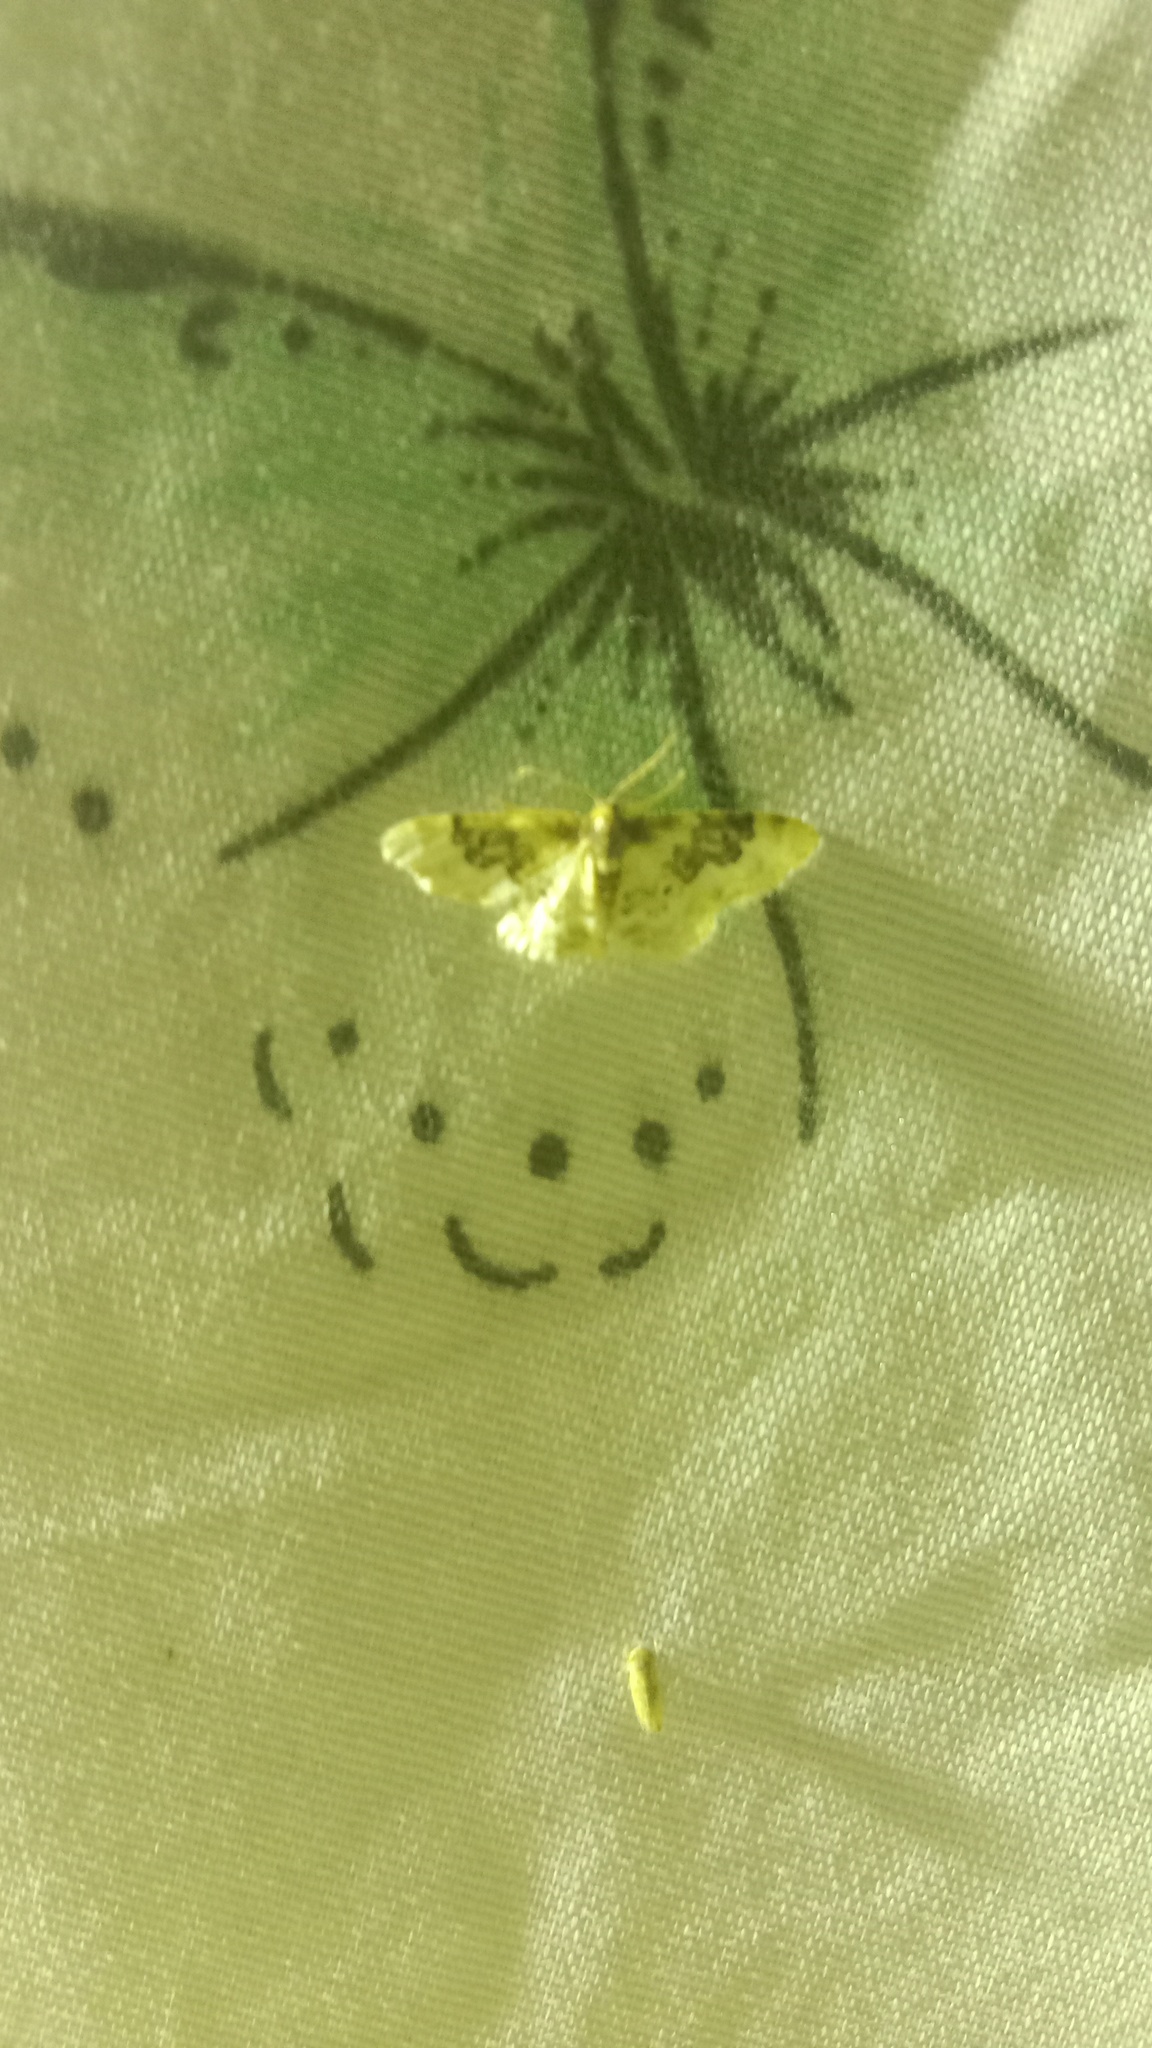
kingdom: Animalia
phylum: Arthropoda
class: Insecta
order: Lepidoptera
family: Geometridae
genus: Idaea
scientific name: Idaea rusticata
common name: Least carpet
